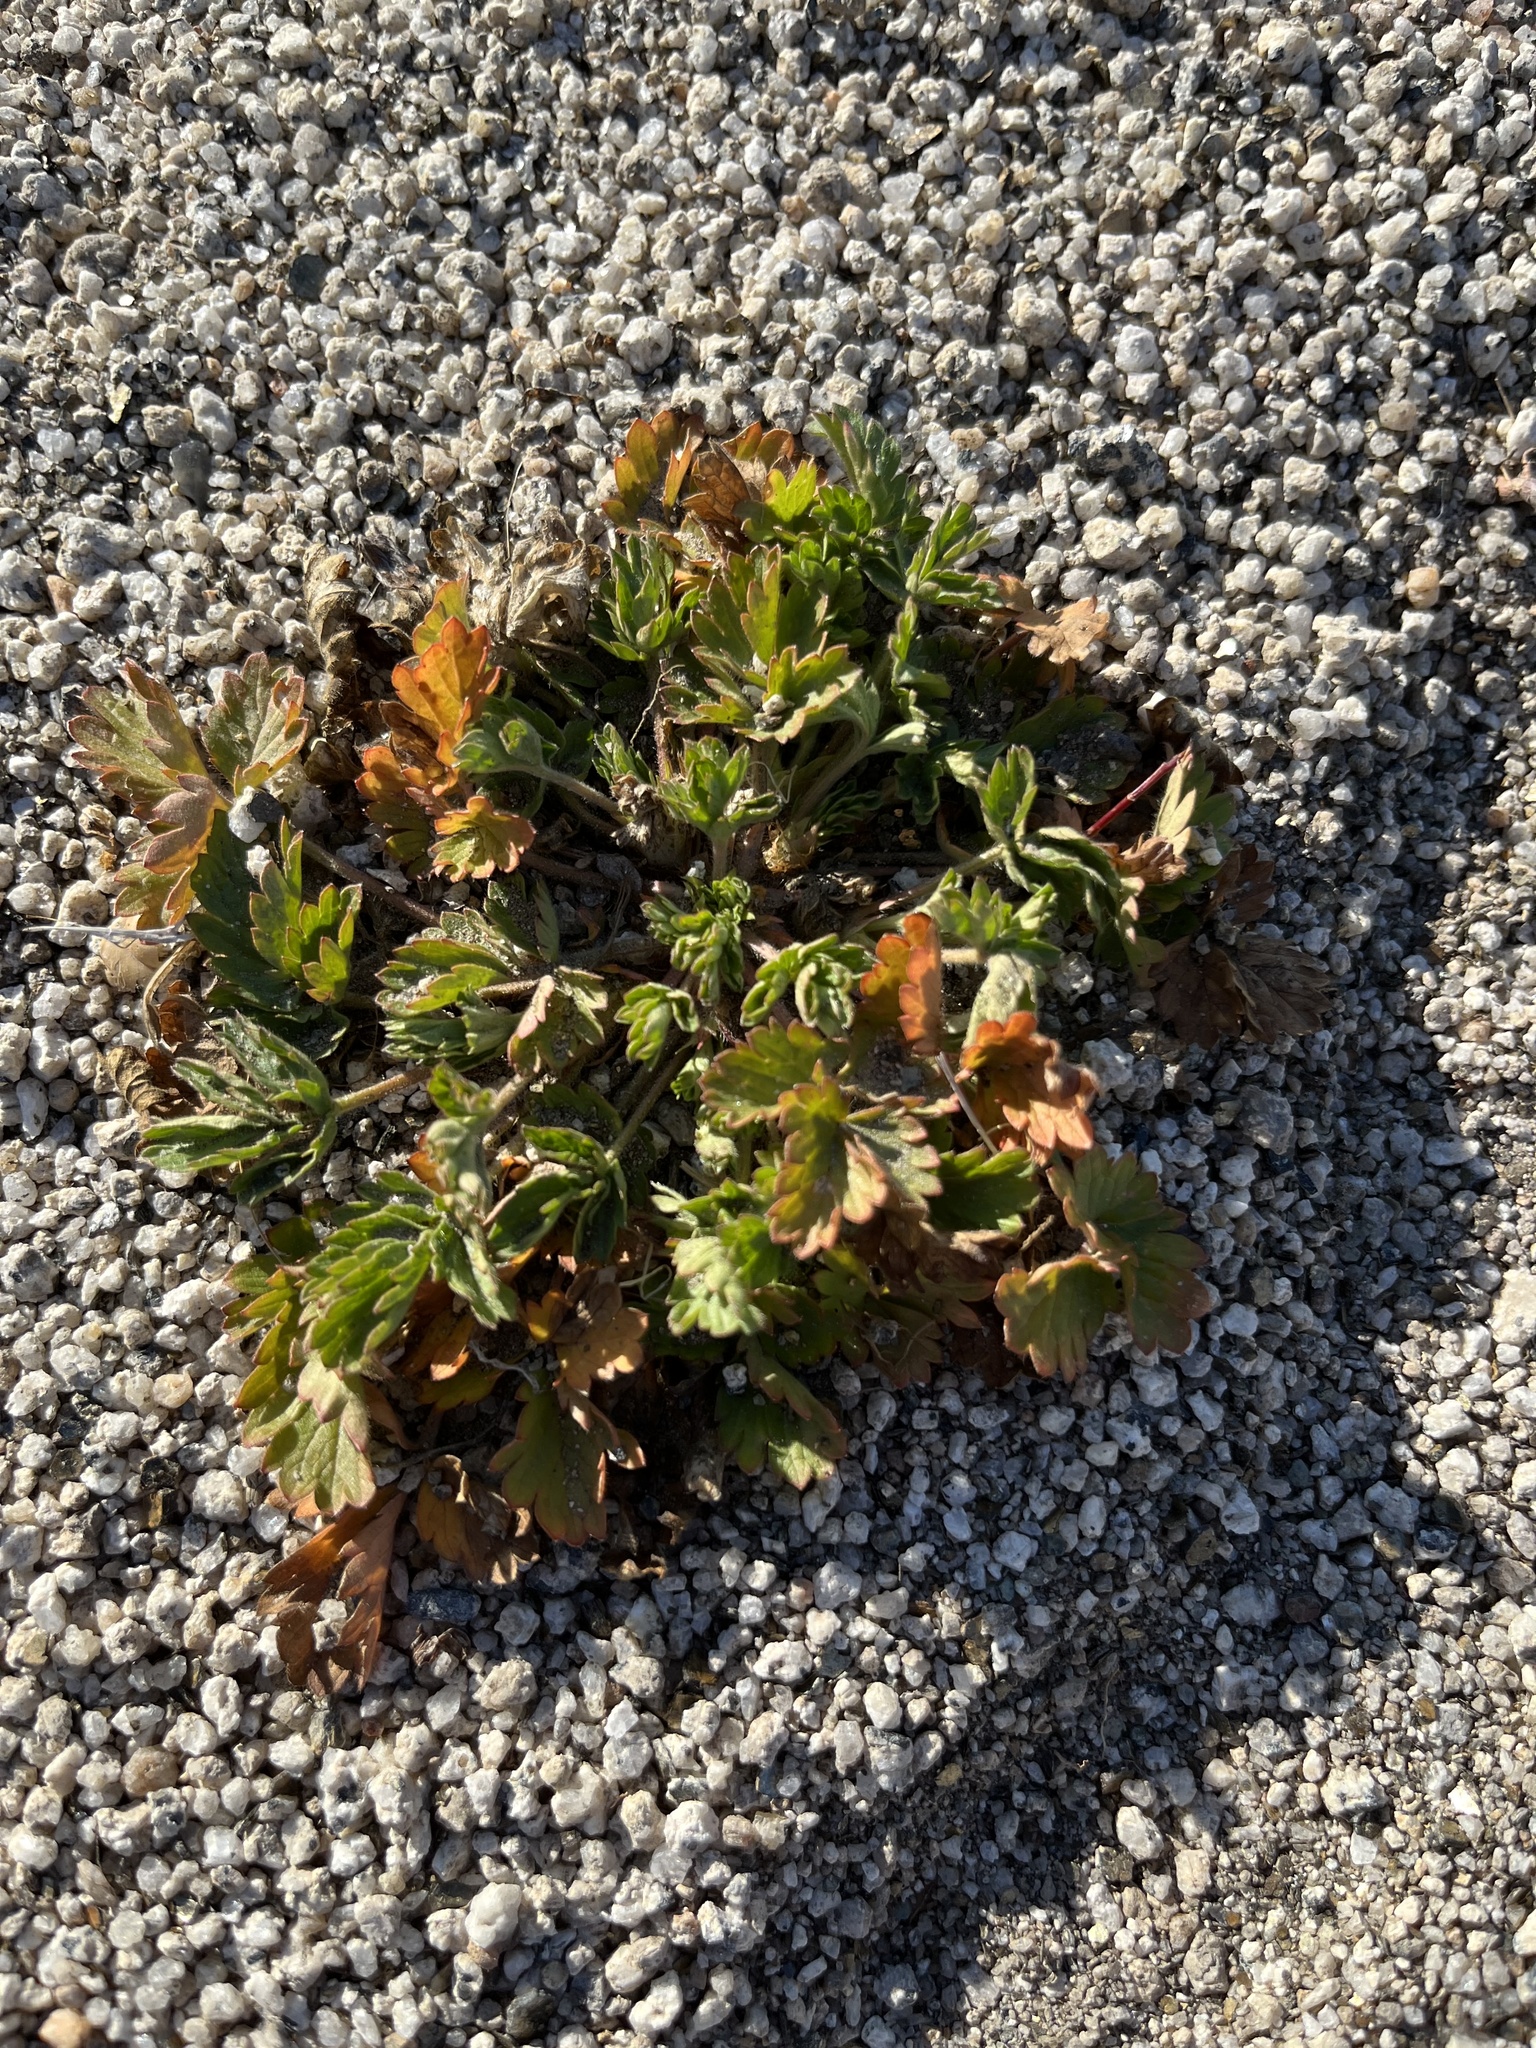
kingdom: Plantae
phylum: Tracheophyta
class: Magnoliopsida
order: Rosales
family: Rosaceae
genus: Potentilla
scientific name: Potentilla rivalis
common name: Brook cinquefoil
